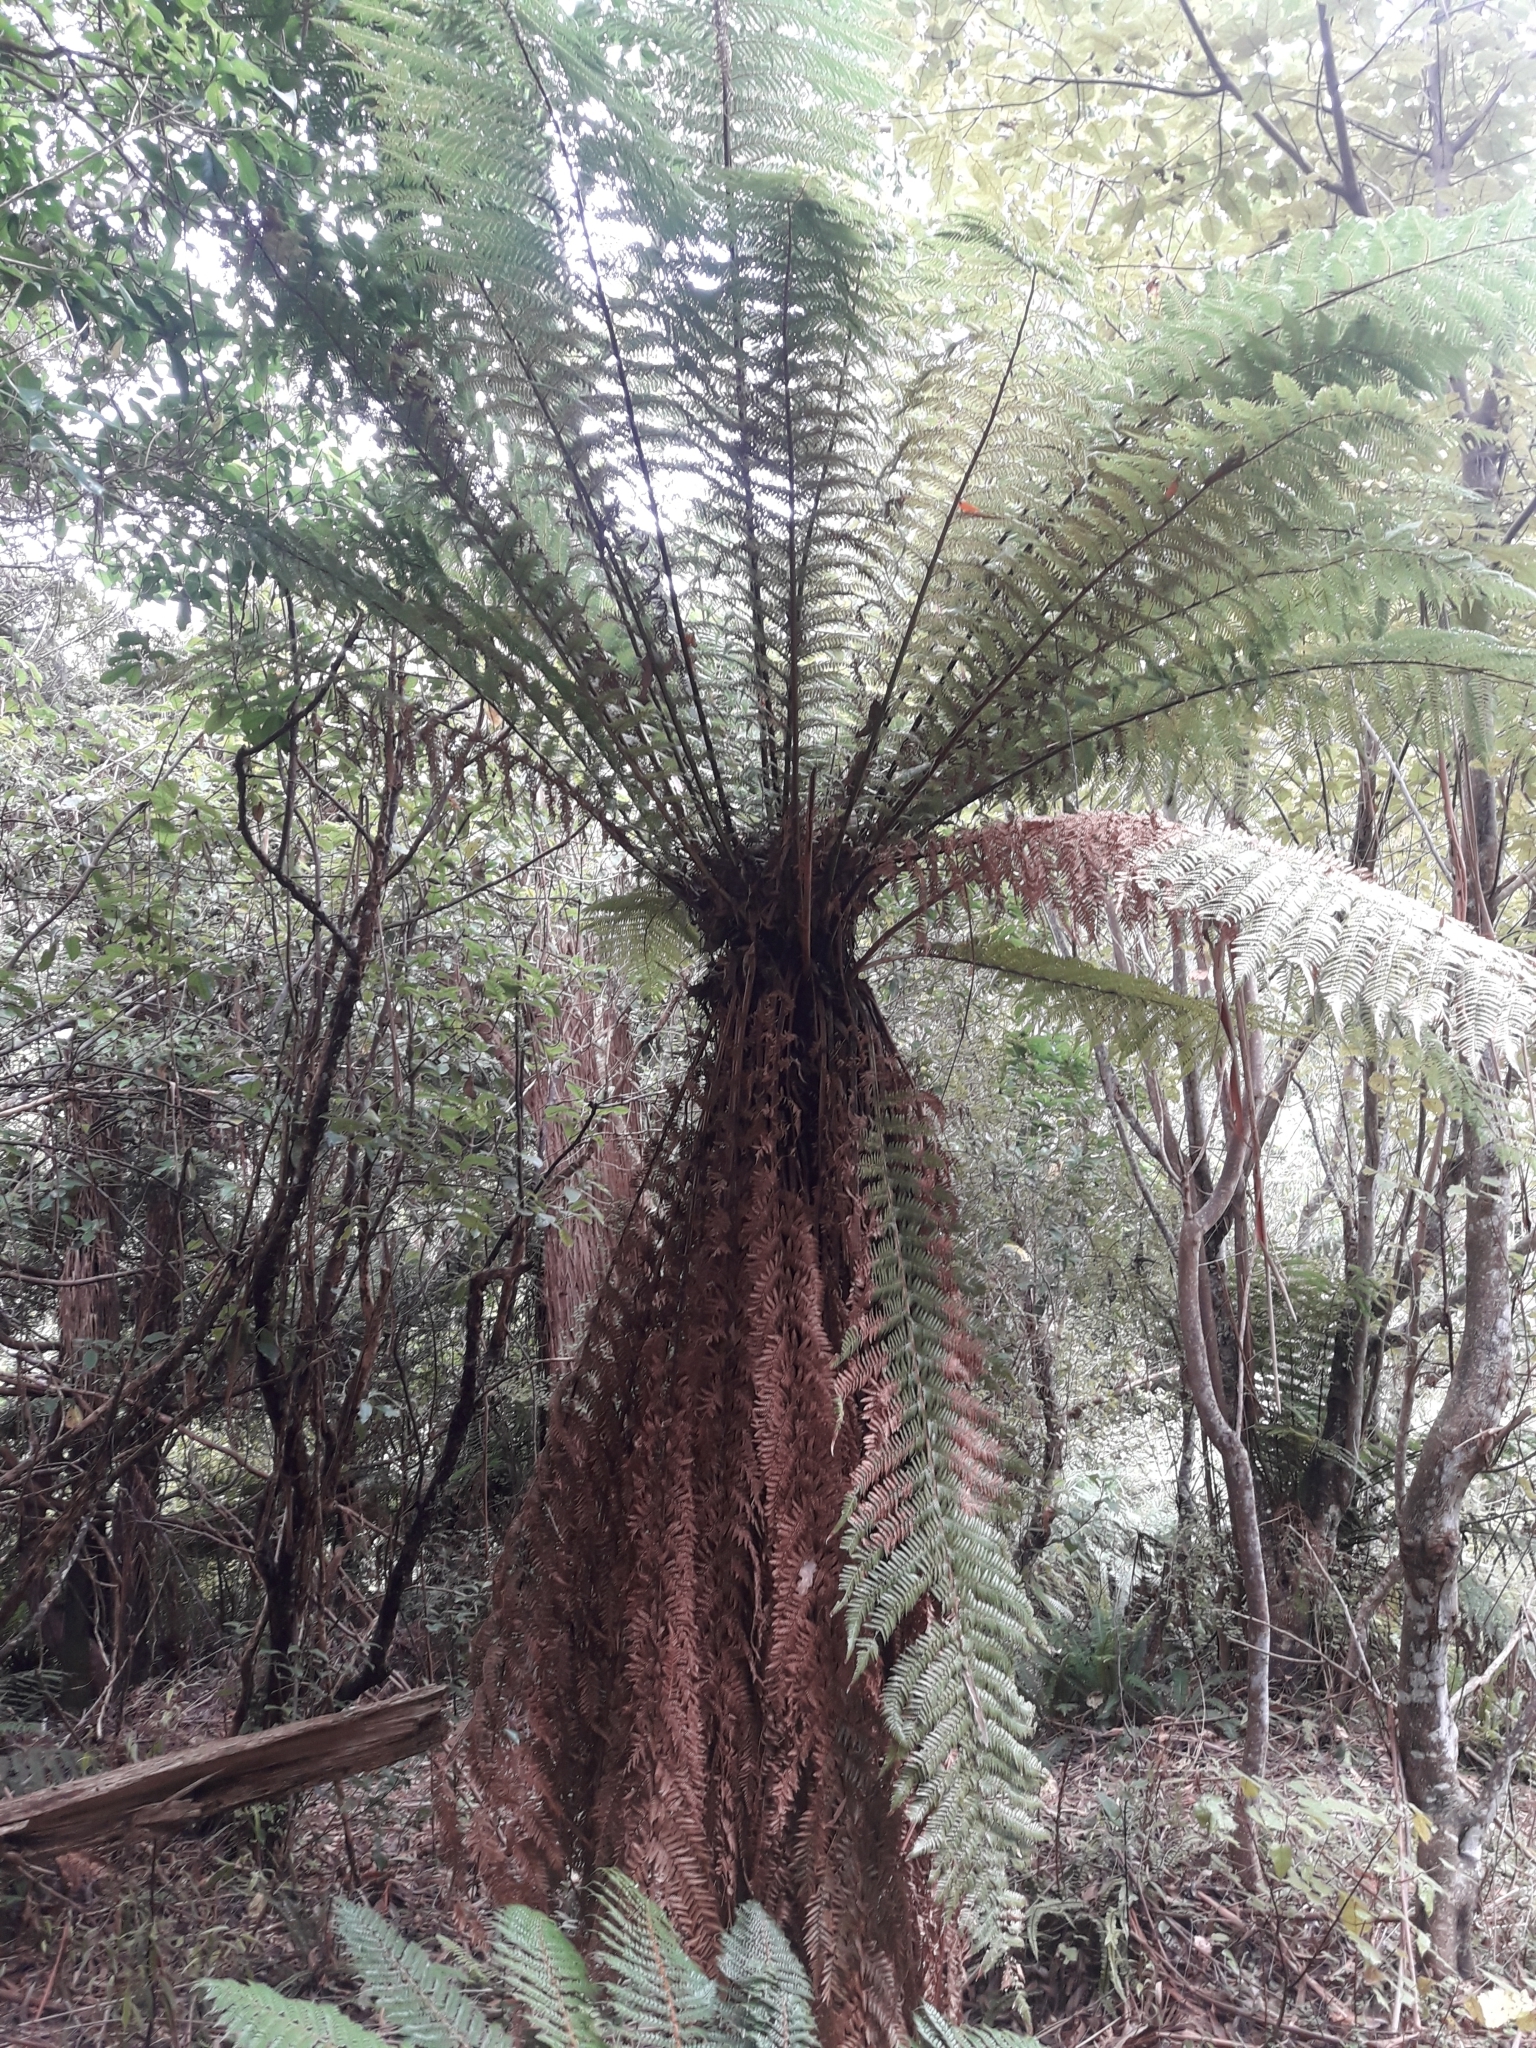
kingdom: Plantae
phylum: Tracheophyta
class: Polypodiopsida
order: Cyatheales
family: Dicksoniaceae
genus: Dicksonia
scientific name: Dicksonia fibrosa
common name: Golden tree fern
